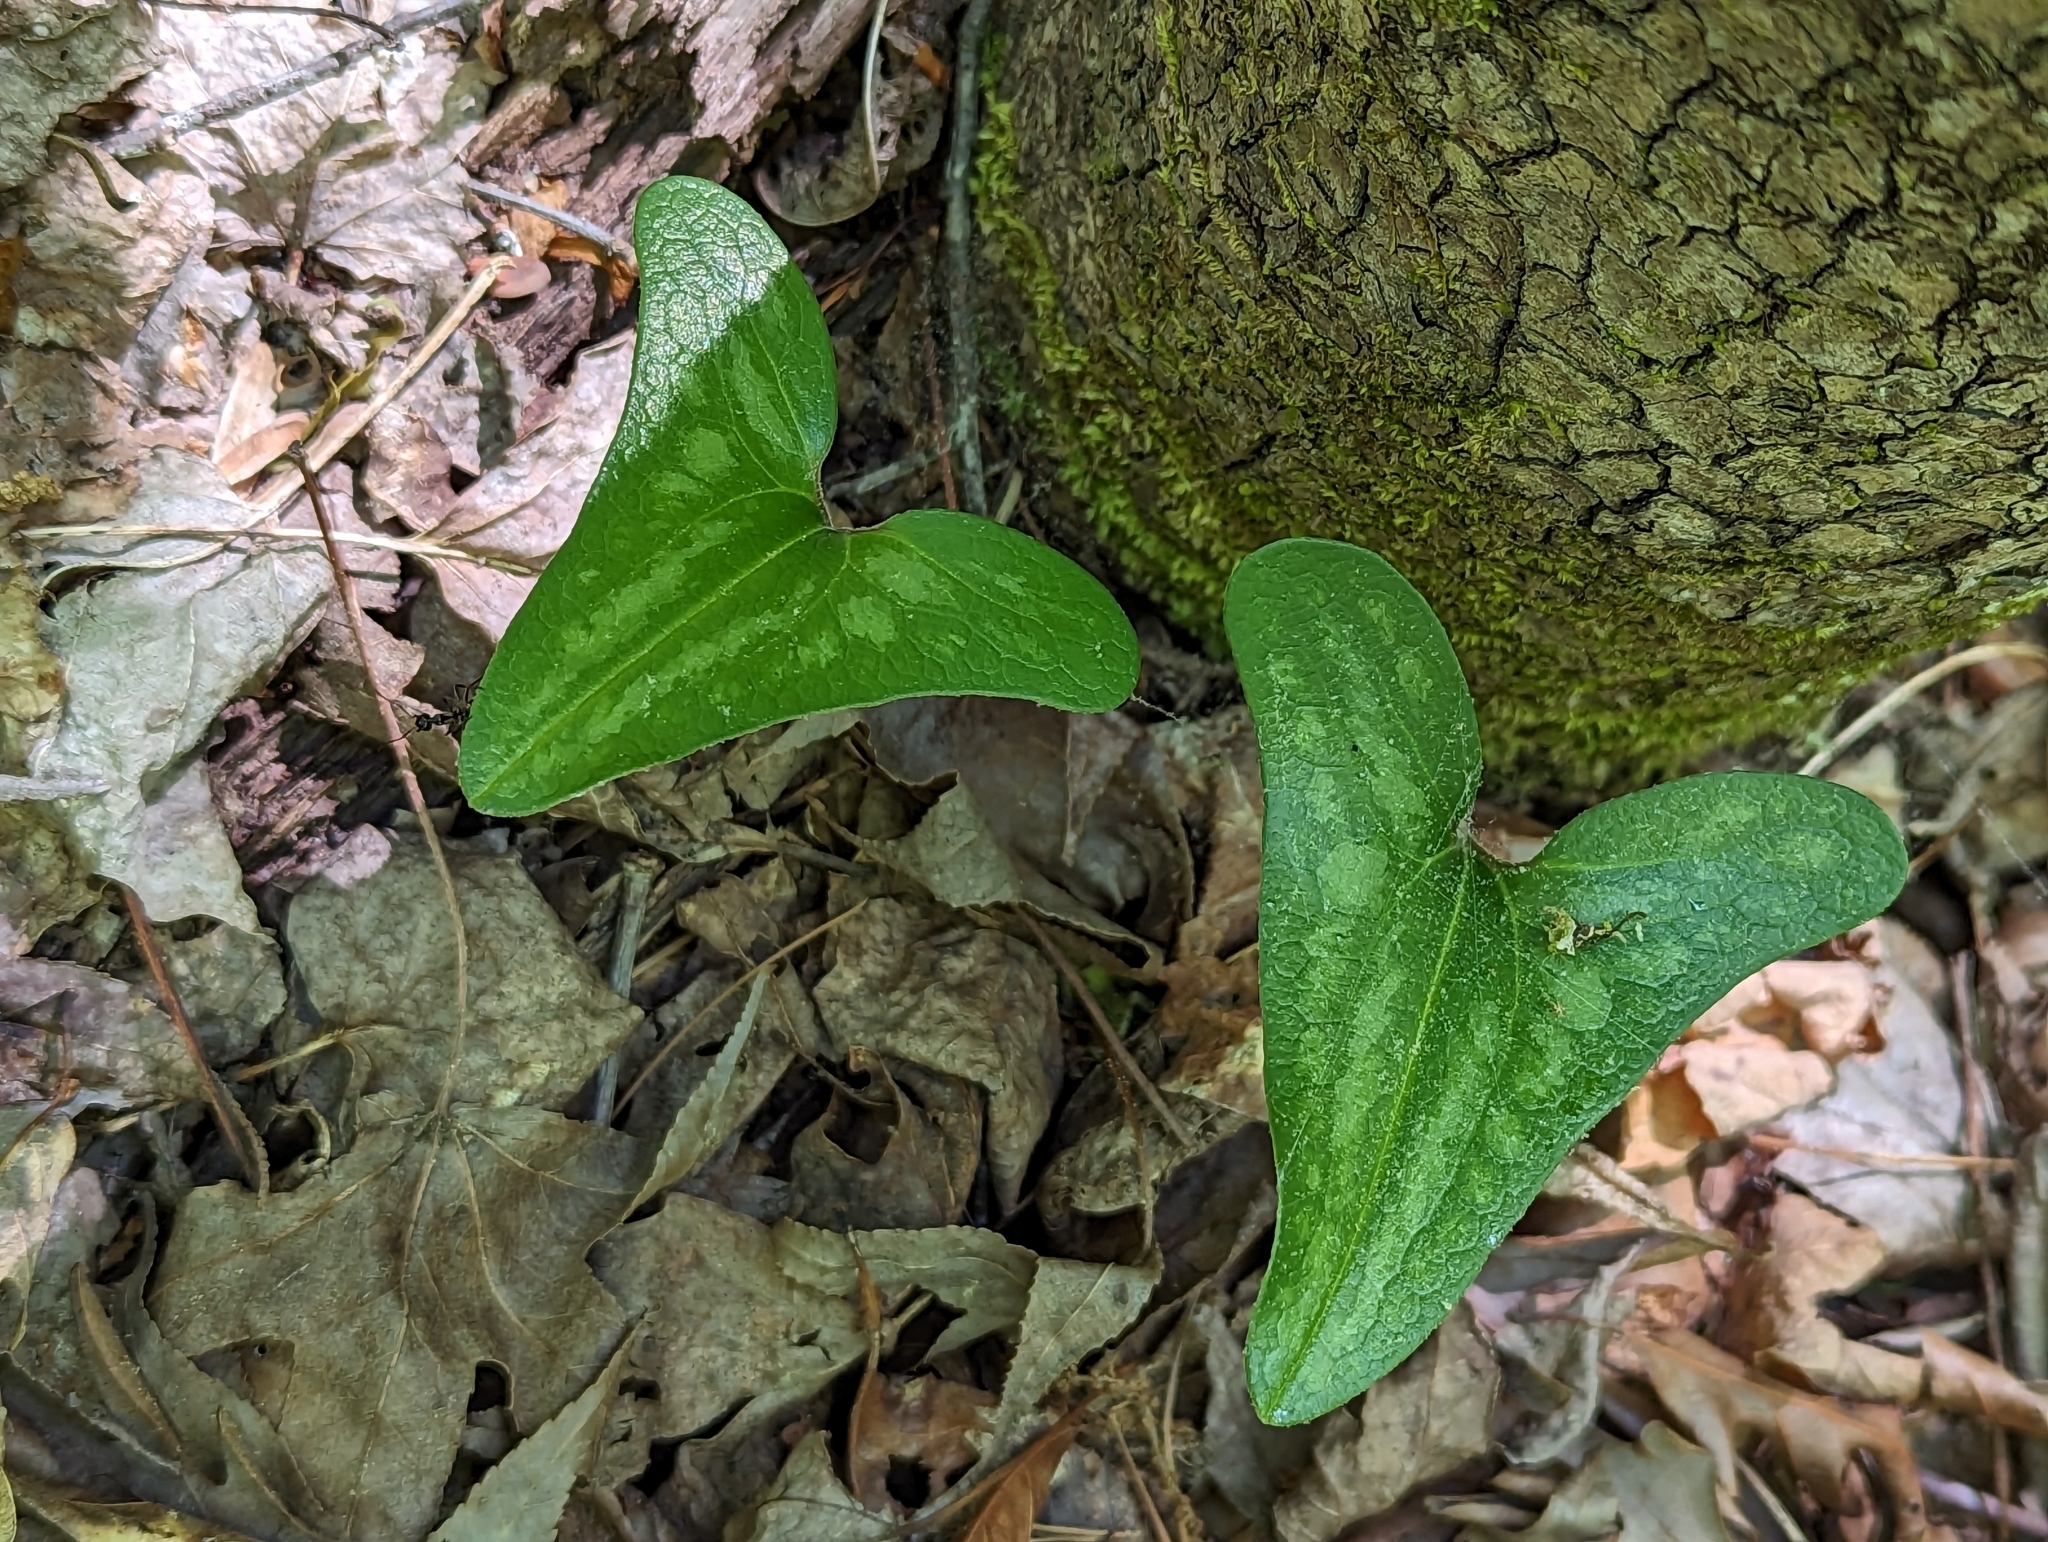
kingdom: Plantae
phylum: Tracheophyta
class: Magnoliopsida
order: Piperales
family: Aristolochiaceae
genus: Hexastylis
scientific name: Hexastylis arifolia
